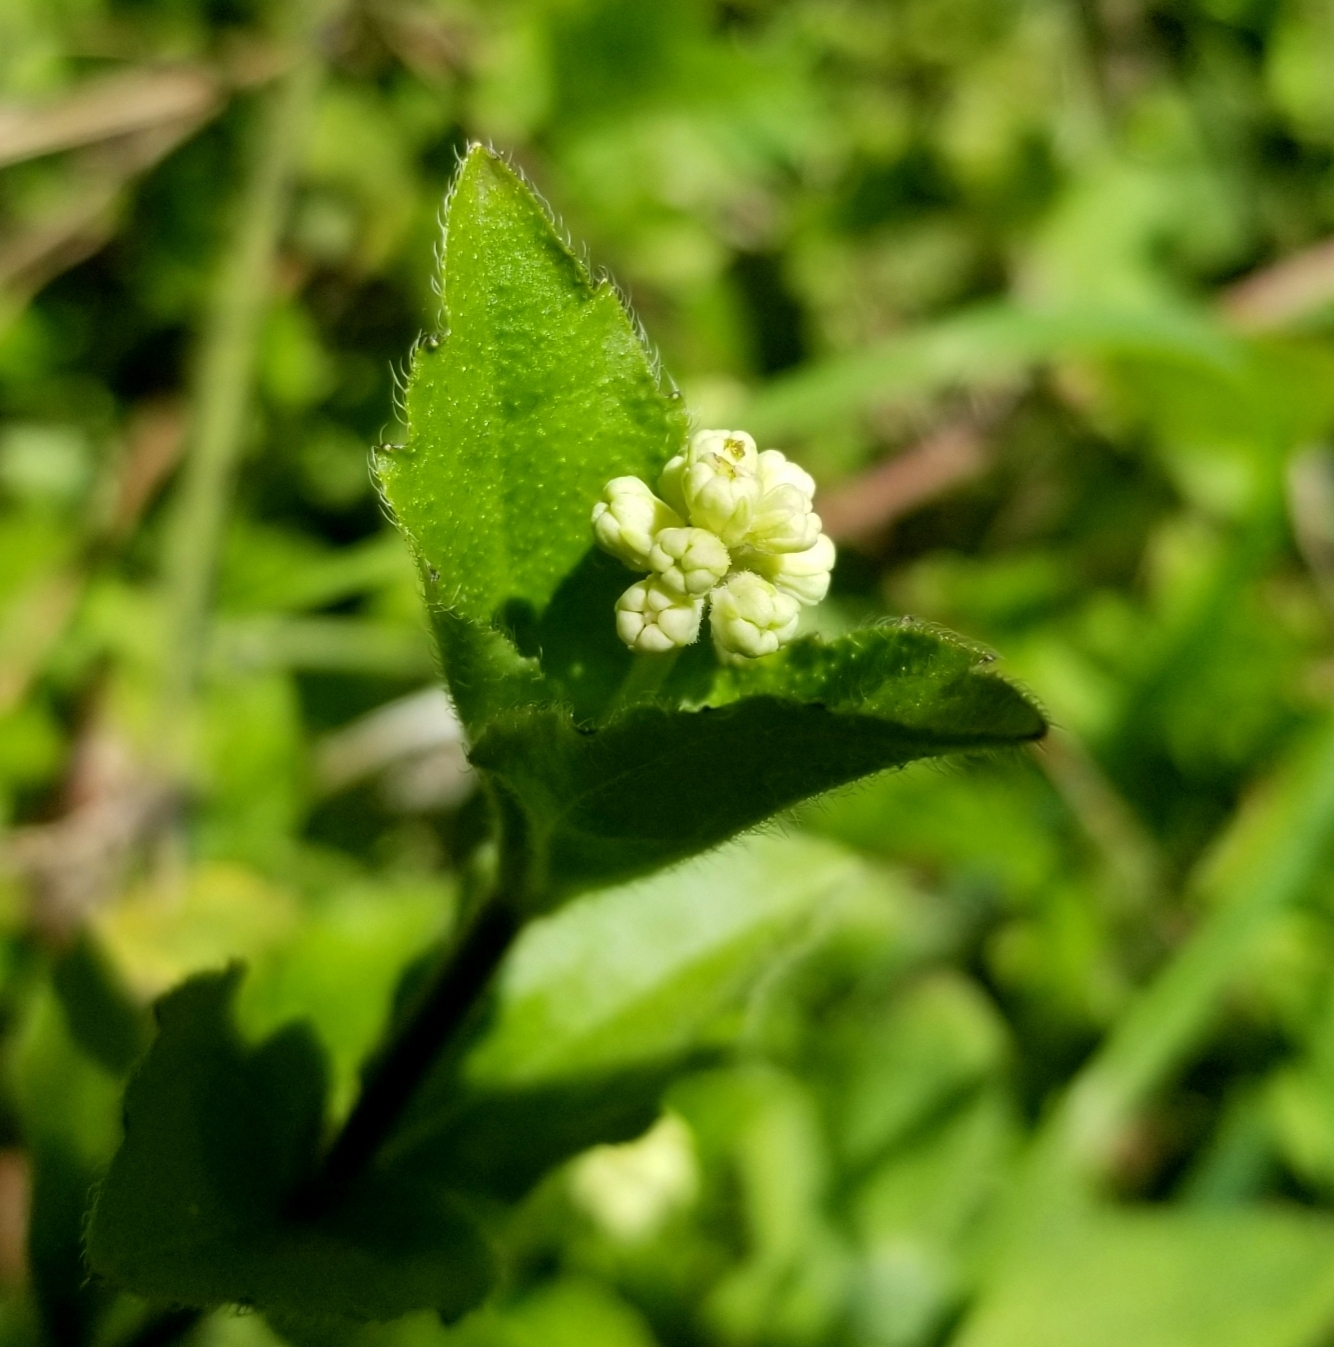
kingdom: Plantae
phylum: Tracheophyta
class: Magnoliopsida
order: Cornales
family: Hydrangeaceae
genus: Whipplea
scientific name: Whipplea modesta
